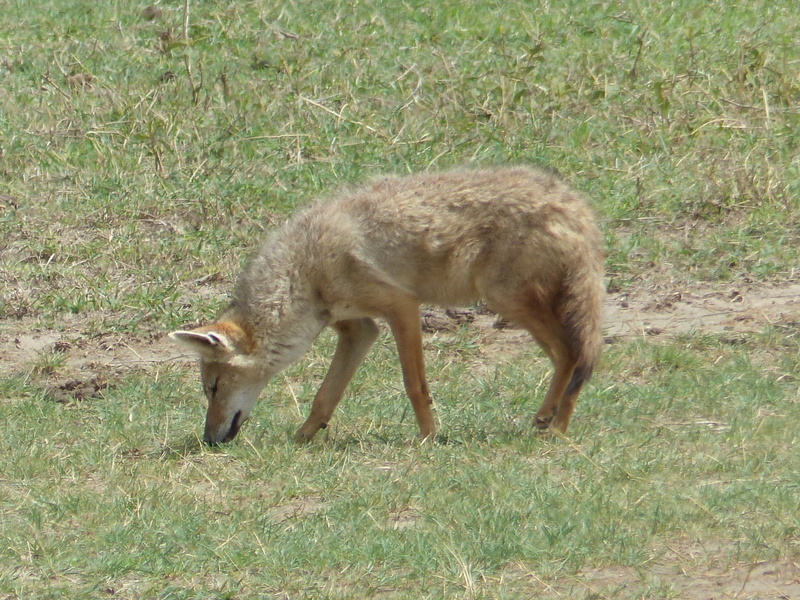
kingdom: Animalia
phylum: Chordata
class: Mammalia
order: Carnivora
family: Canidae
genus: Canis
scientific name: Canis lupaster
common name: African golden wolf
